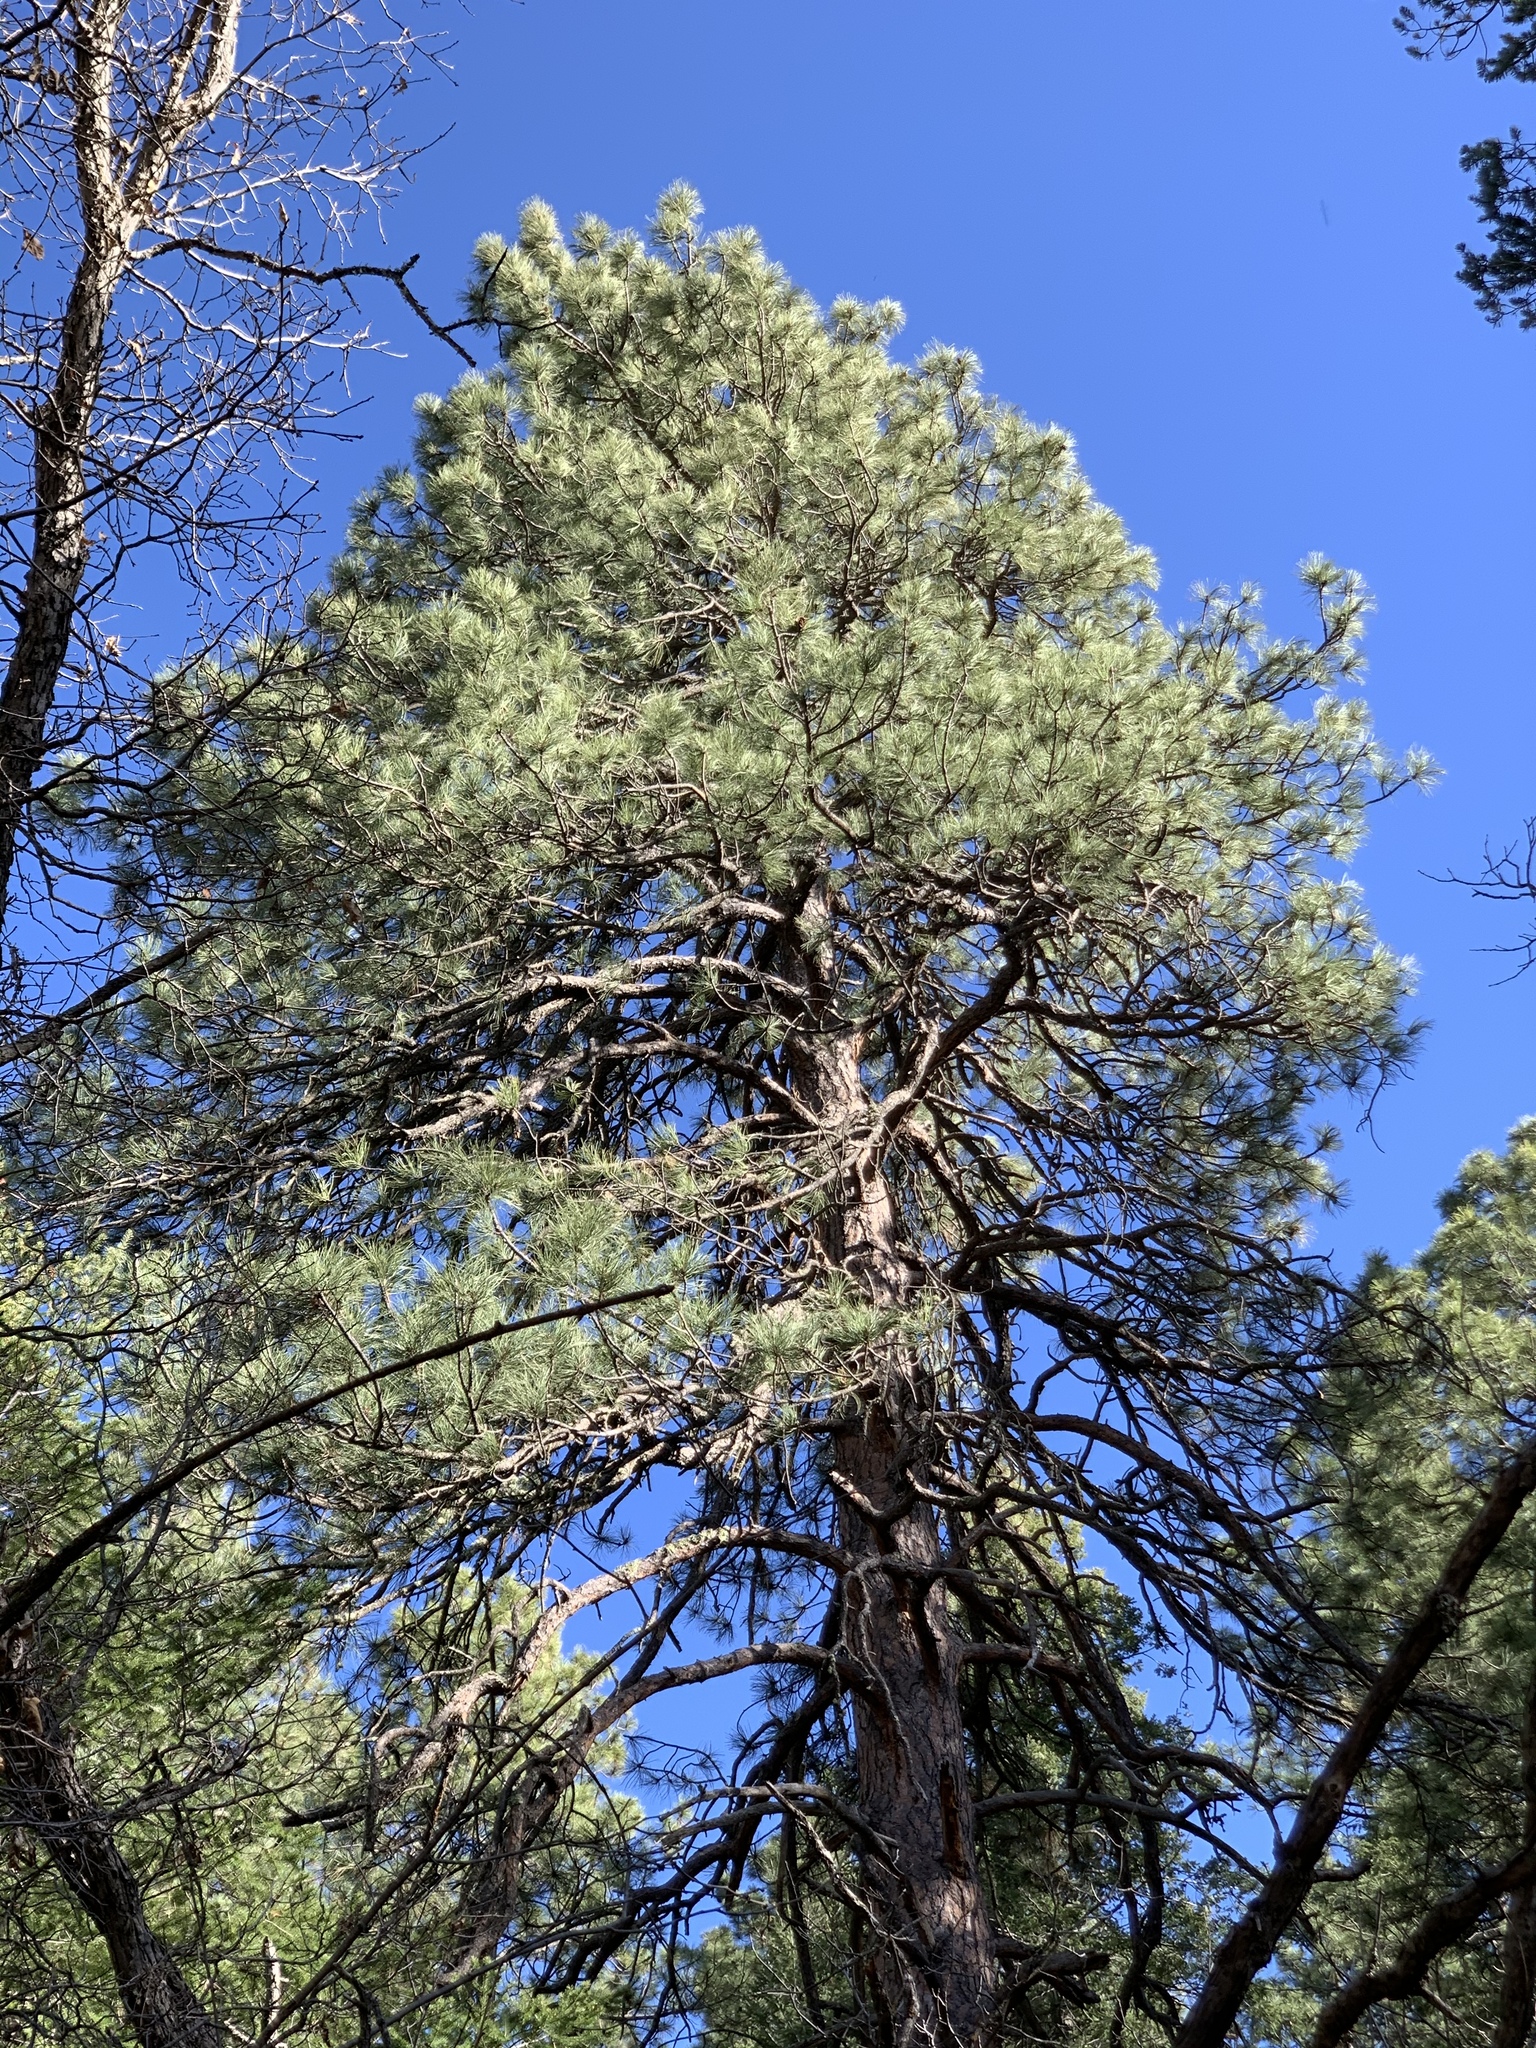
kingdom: Plantae
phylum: Tracheophyta
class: Pinopsida
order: Pinales
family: Pinaceae
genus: Pinus
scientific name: Pinus ponderosa
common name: Western yellow-pine
